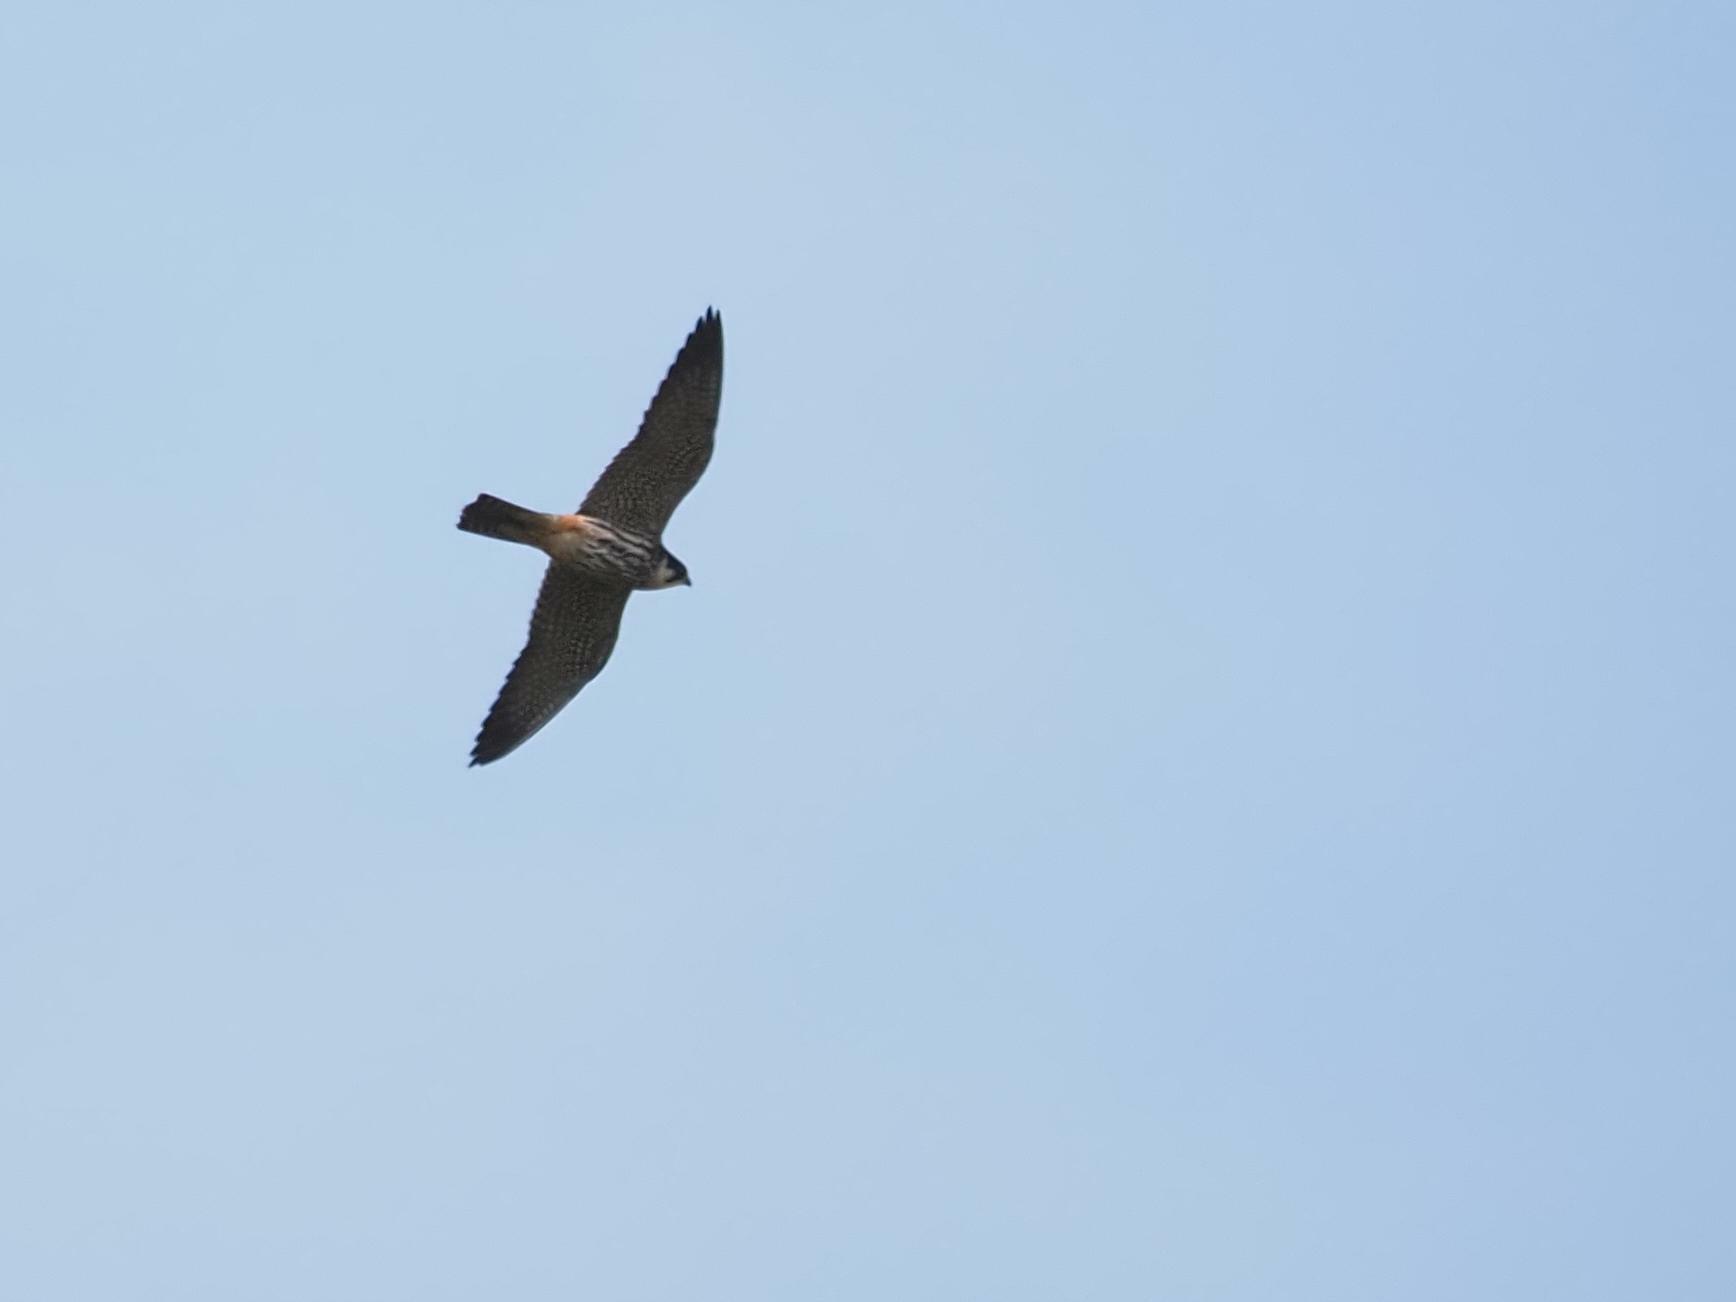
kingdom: Animalia
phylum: Chordata
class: Aves
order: Falconiformes
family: Falconidae
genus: Falco
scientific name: Falco subbuteo
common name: Eurasian hobby
